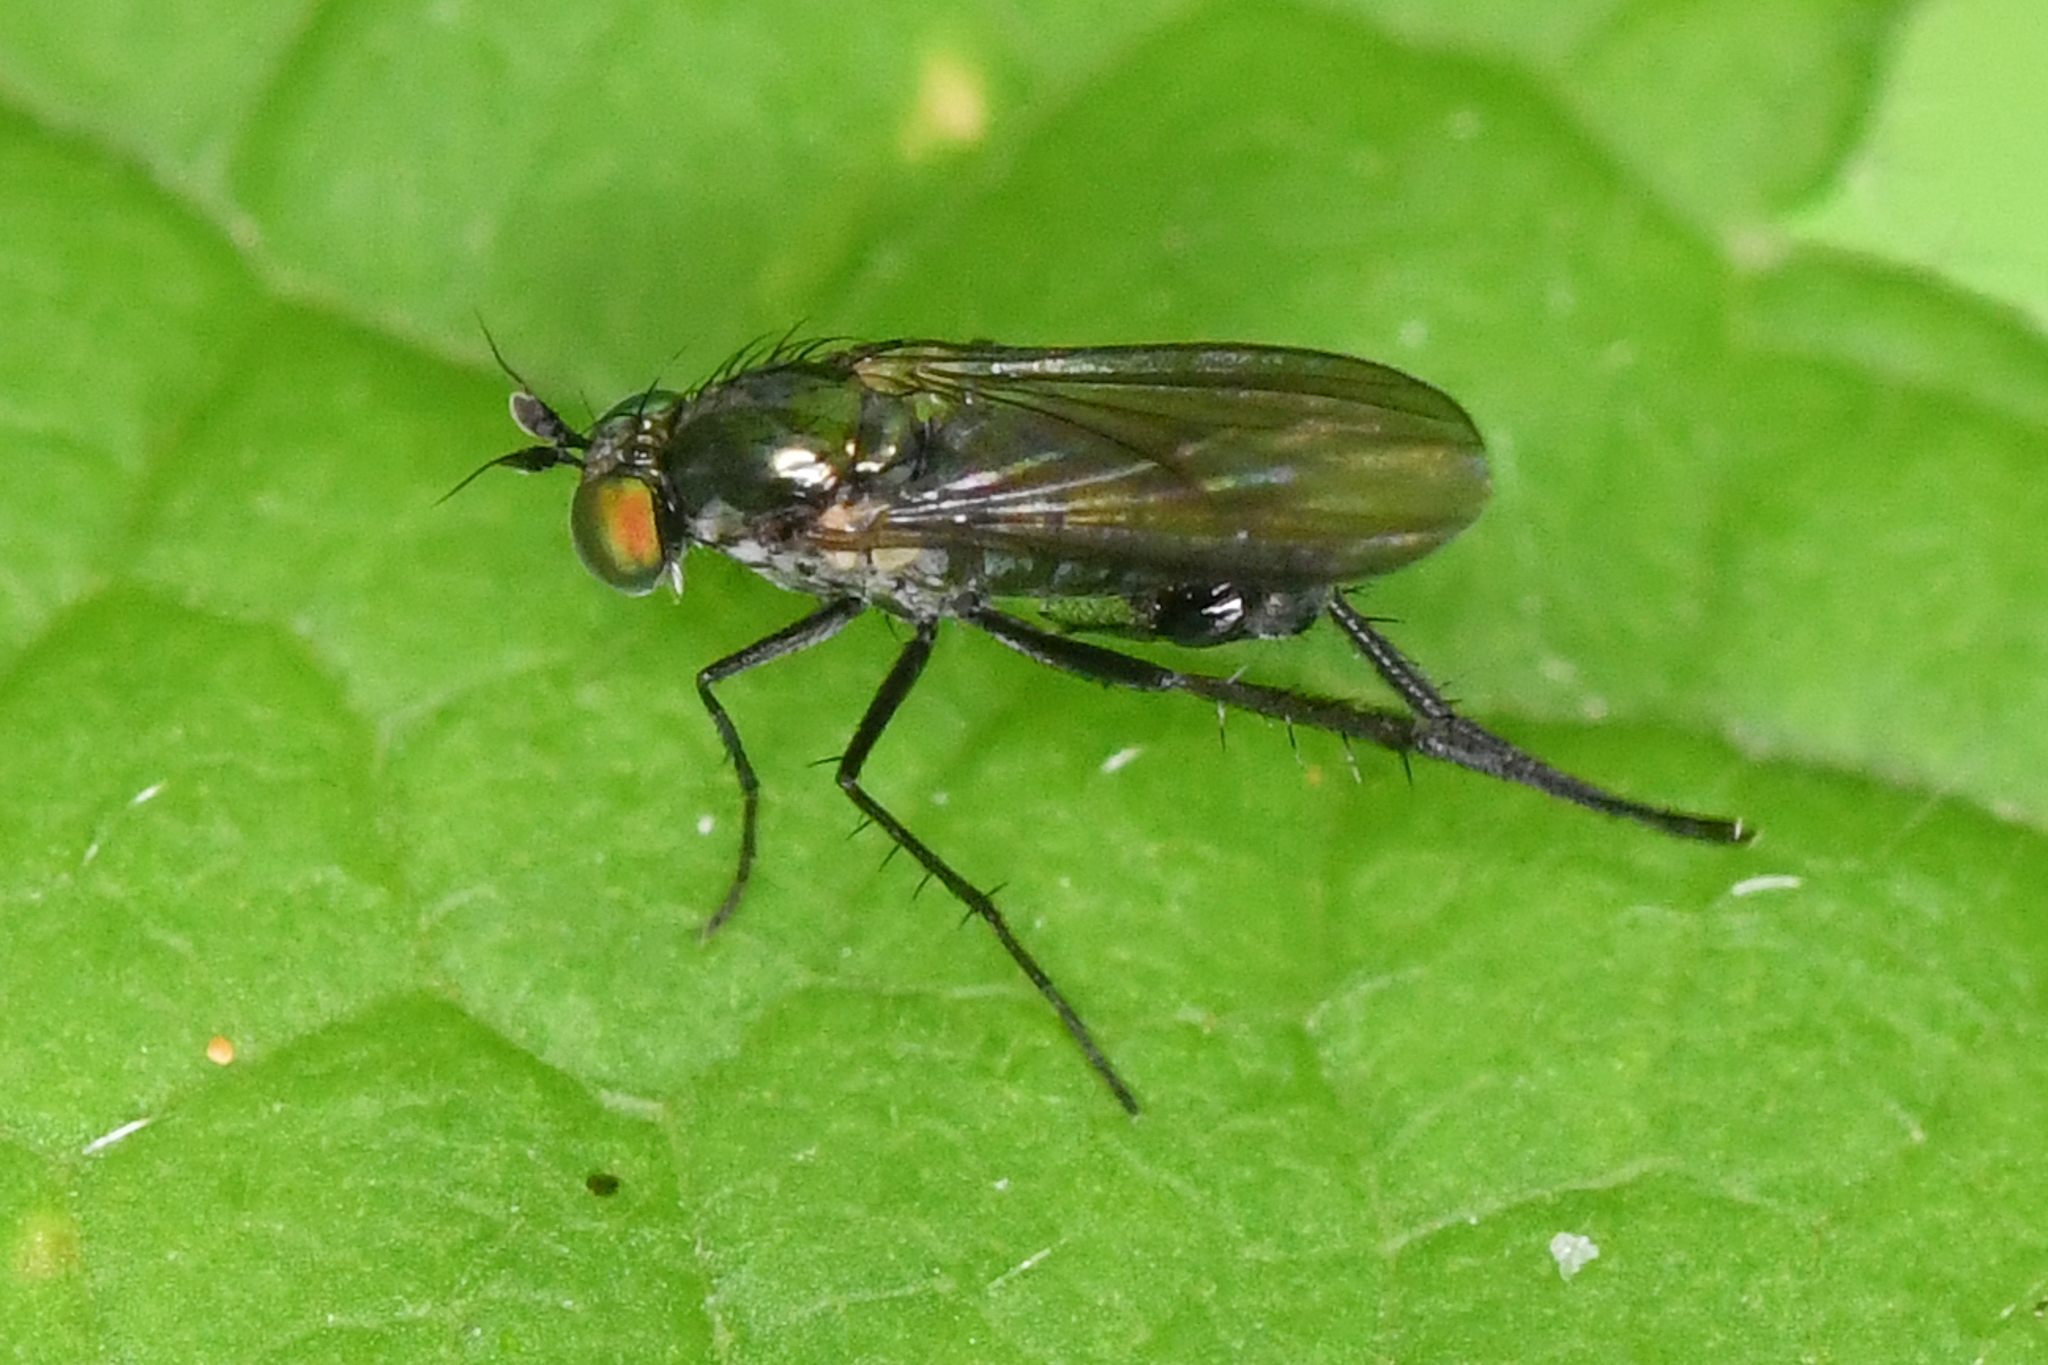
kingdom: Animalia
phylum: Arthropoda
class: Insecta
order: Diptera
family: Dolichopodidae
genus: Hercostomus
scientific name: Hercostomus unicolor
